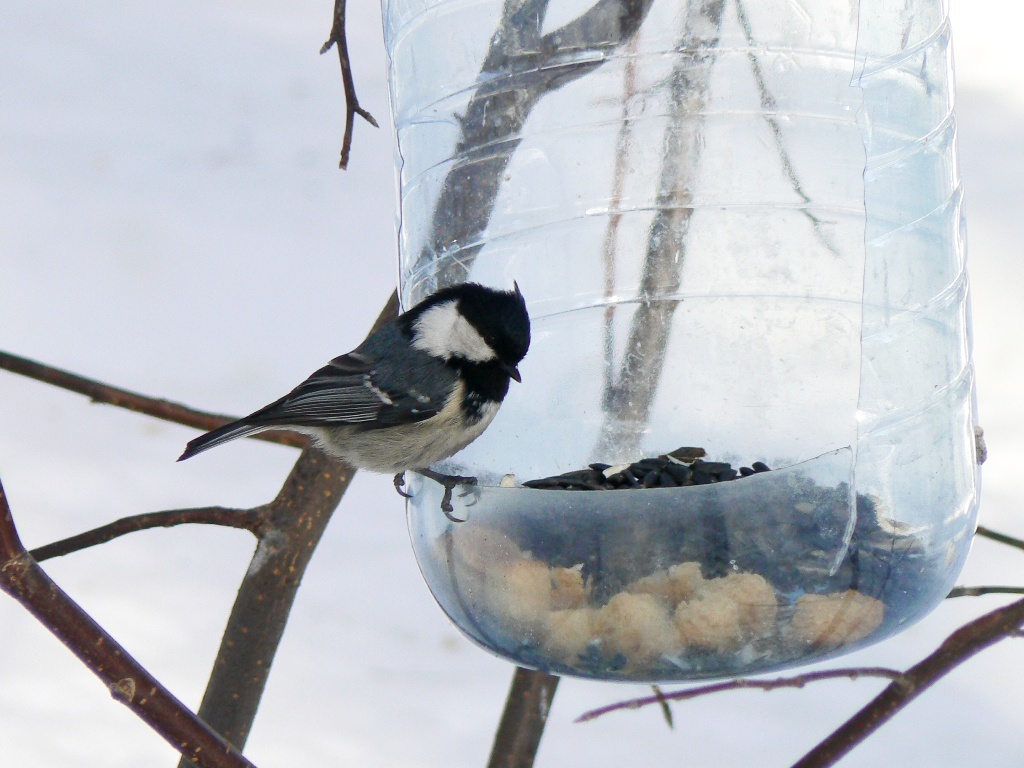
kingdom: Animalia
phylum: Chordata
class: Aves
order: Passeriformes
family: Paridae
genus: Periparus
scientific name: Periparus ater
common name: Coal tit
